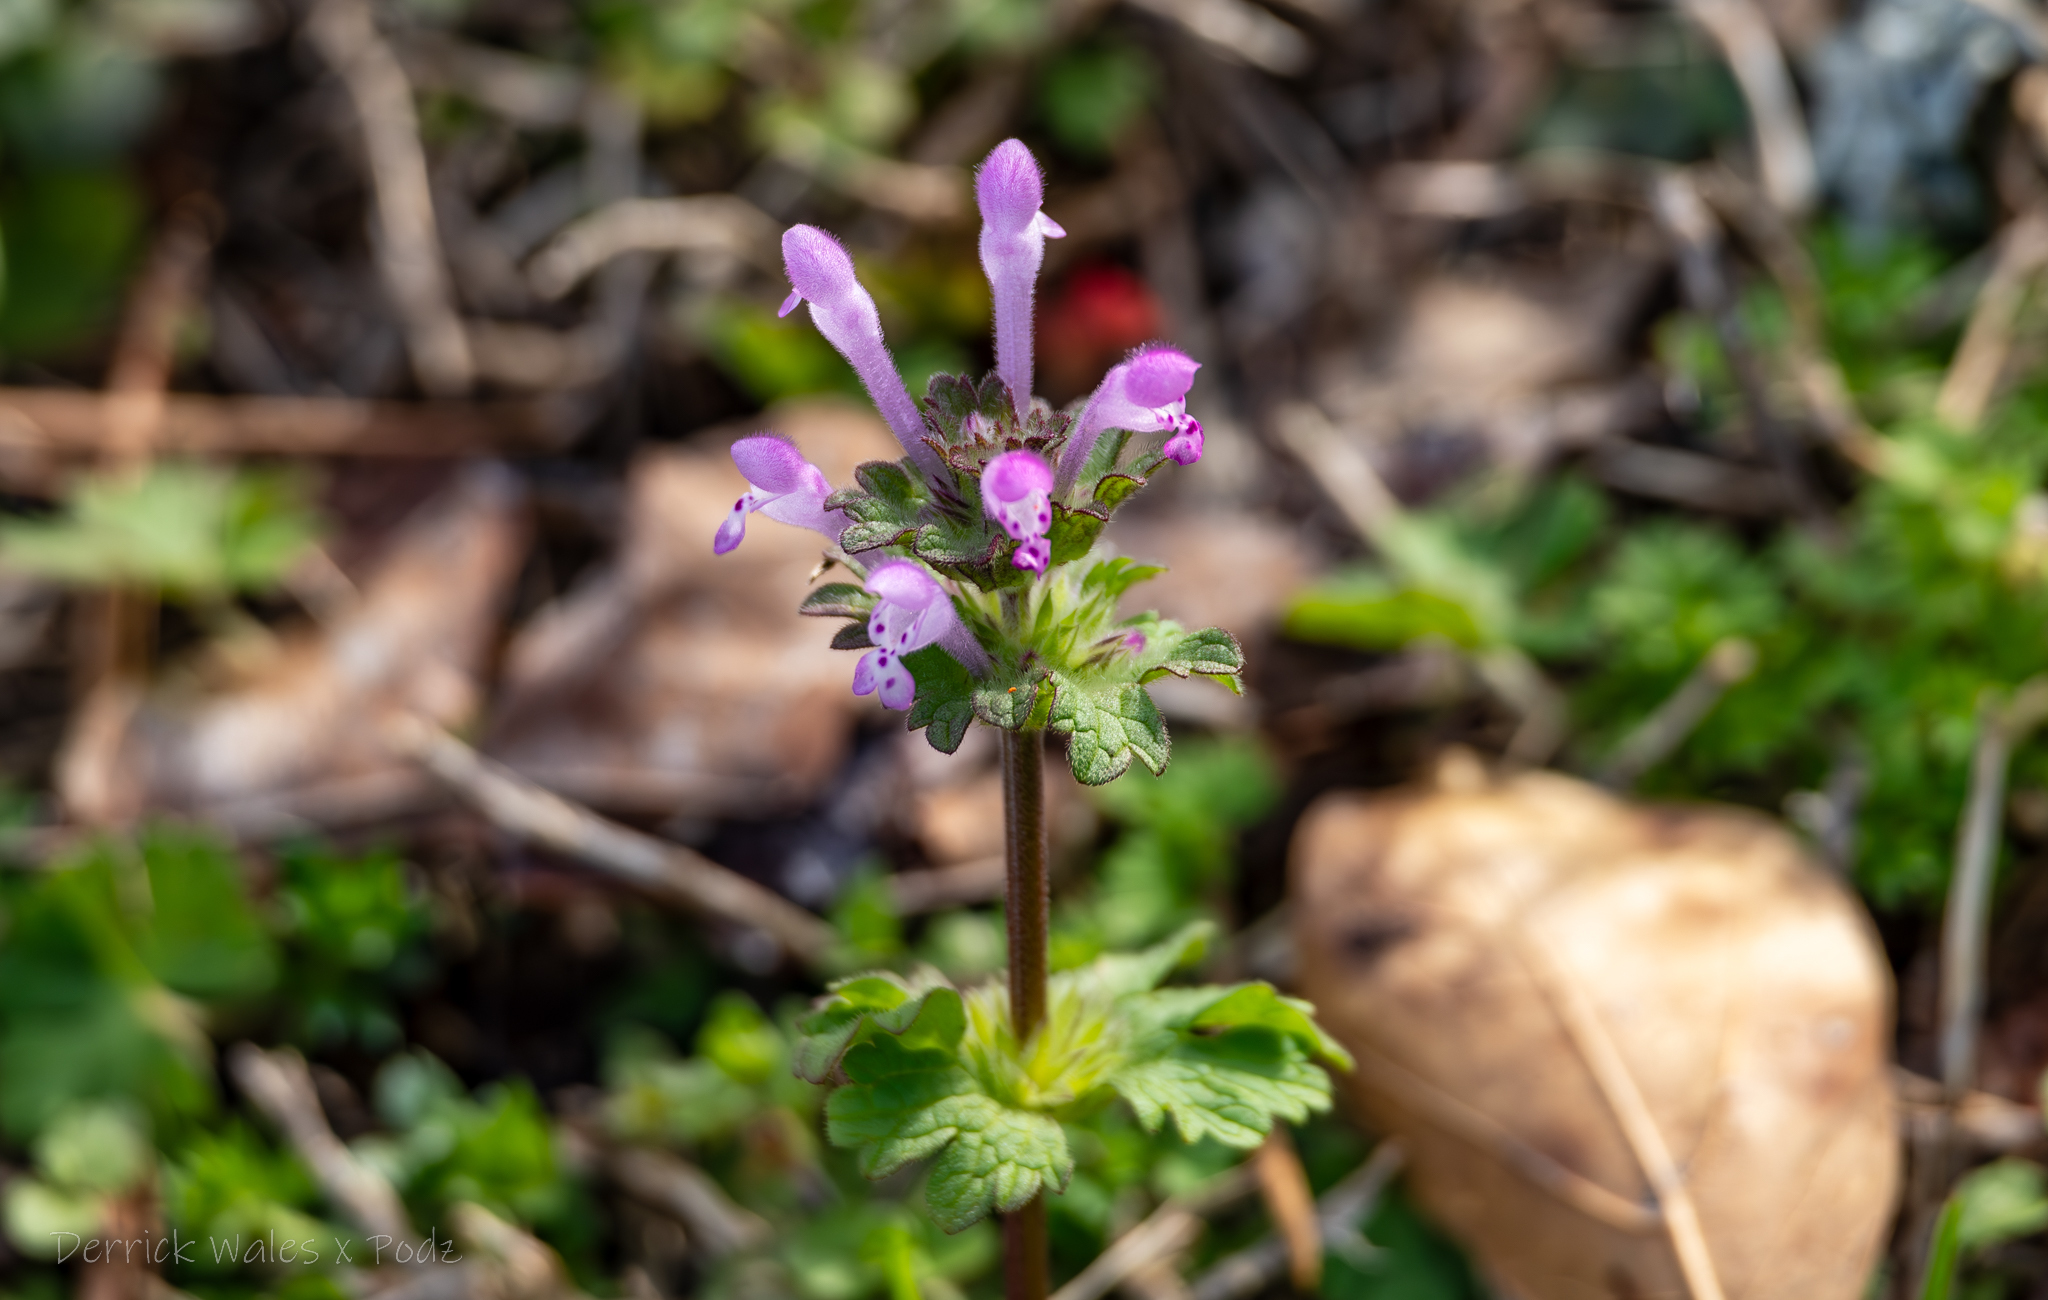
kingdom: Plantae
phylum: Tracheophyta
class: Magnoliopsida
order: Lamiales
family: Lamiaceae
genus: Lamium
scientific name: Lamium amplexicaule
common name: Henbit dead-nettle
